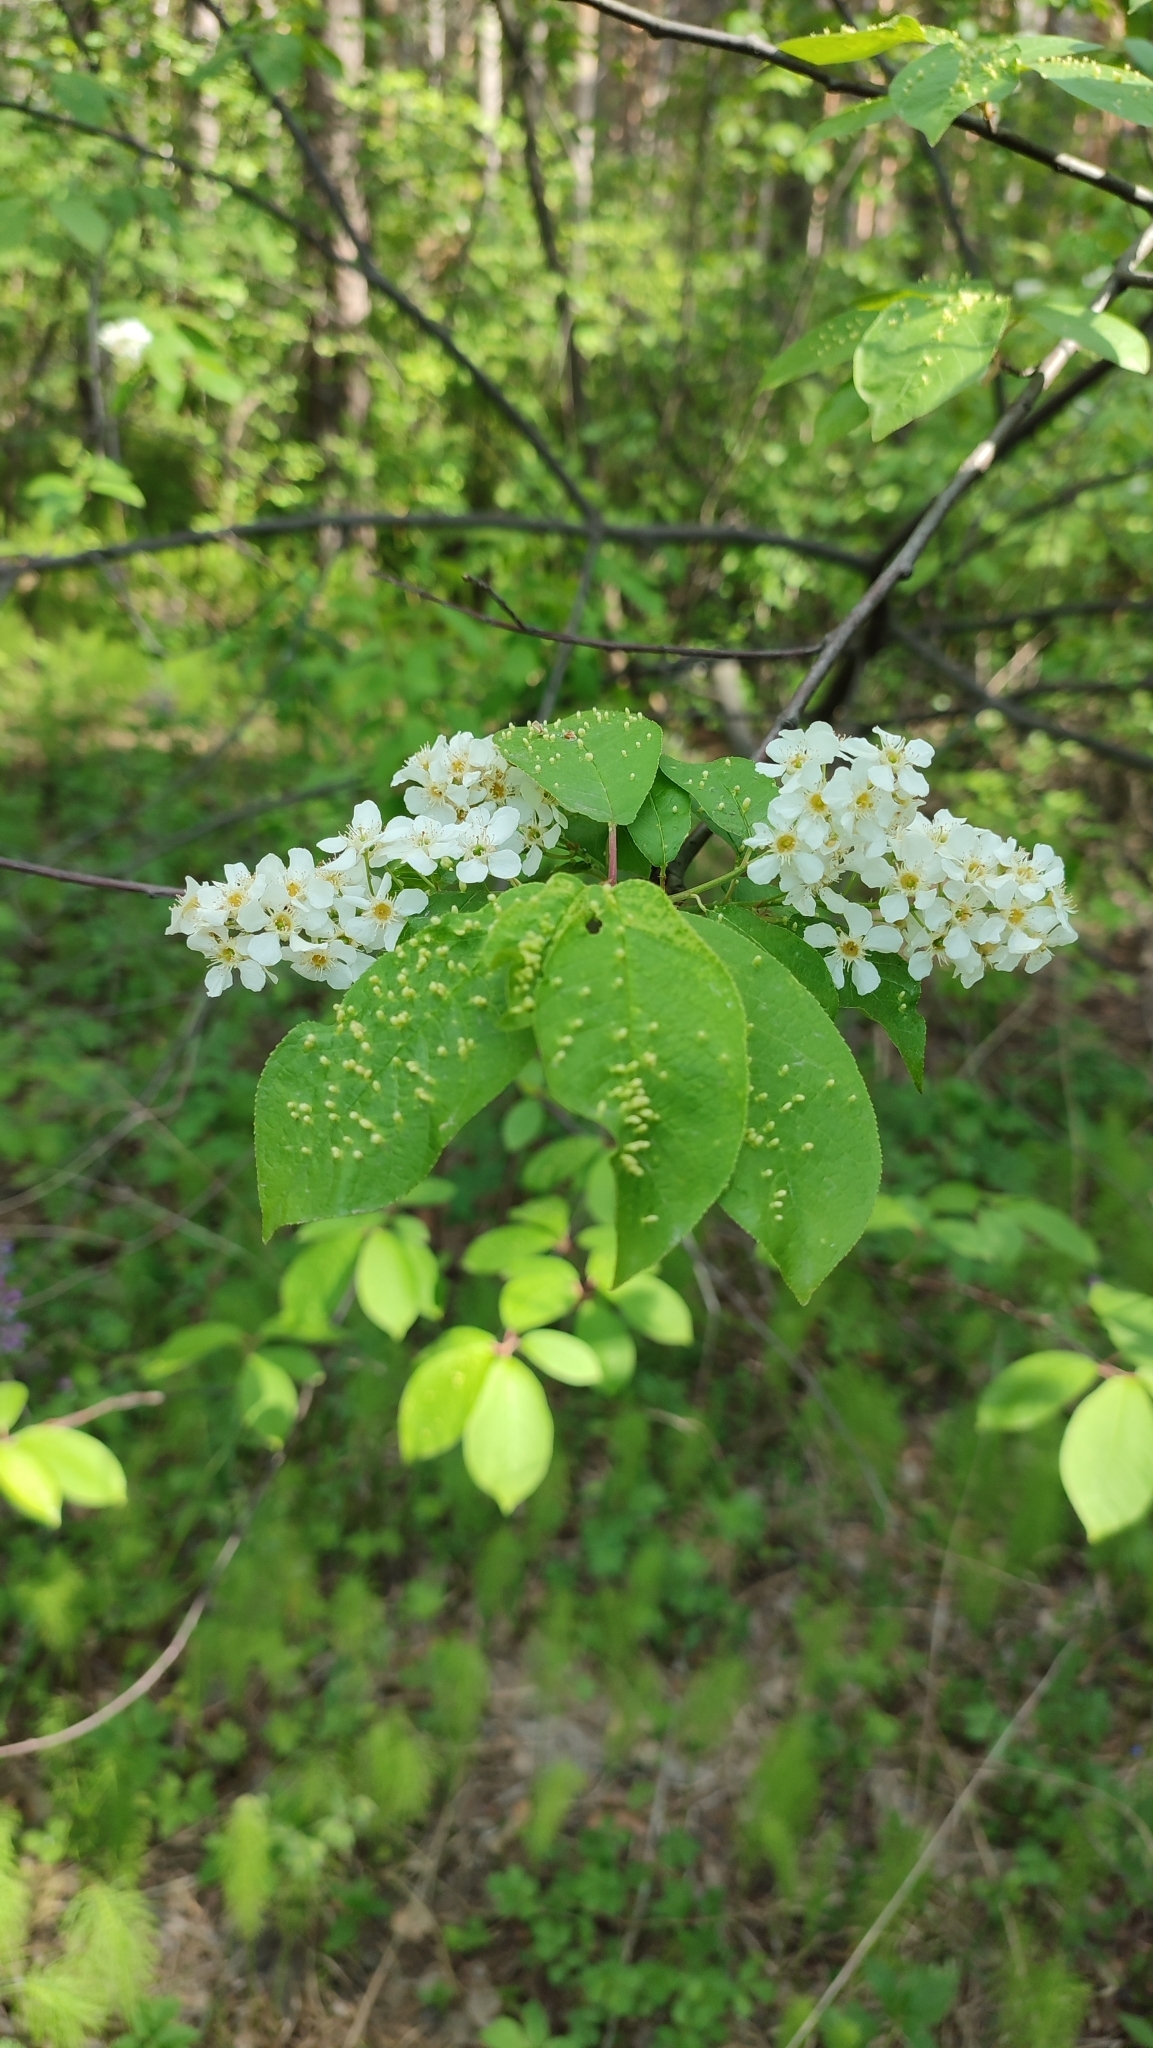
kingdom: Plantae
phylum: Tracheophyta
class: Magnoliopsida
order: Fabales
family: Fabaceae
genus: Caragana
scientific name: Caragana arborescens
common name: Siberian peashrub
